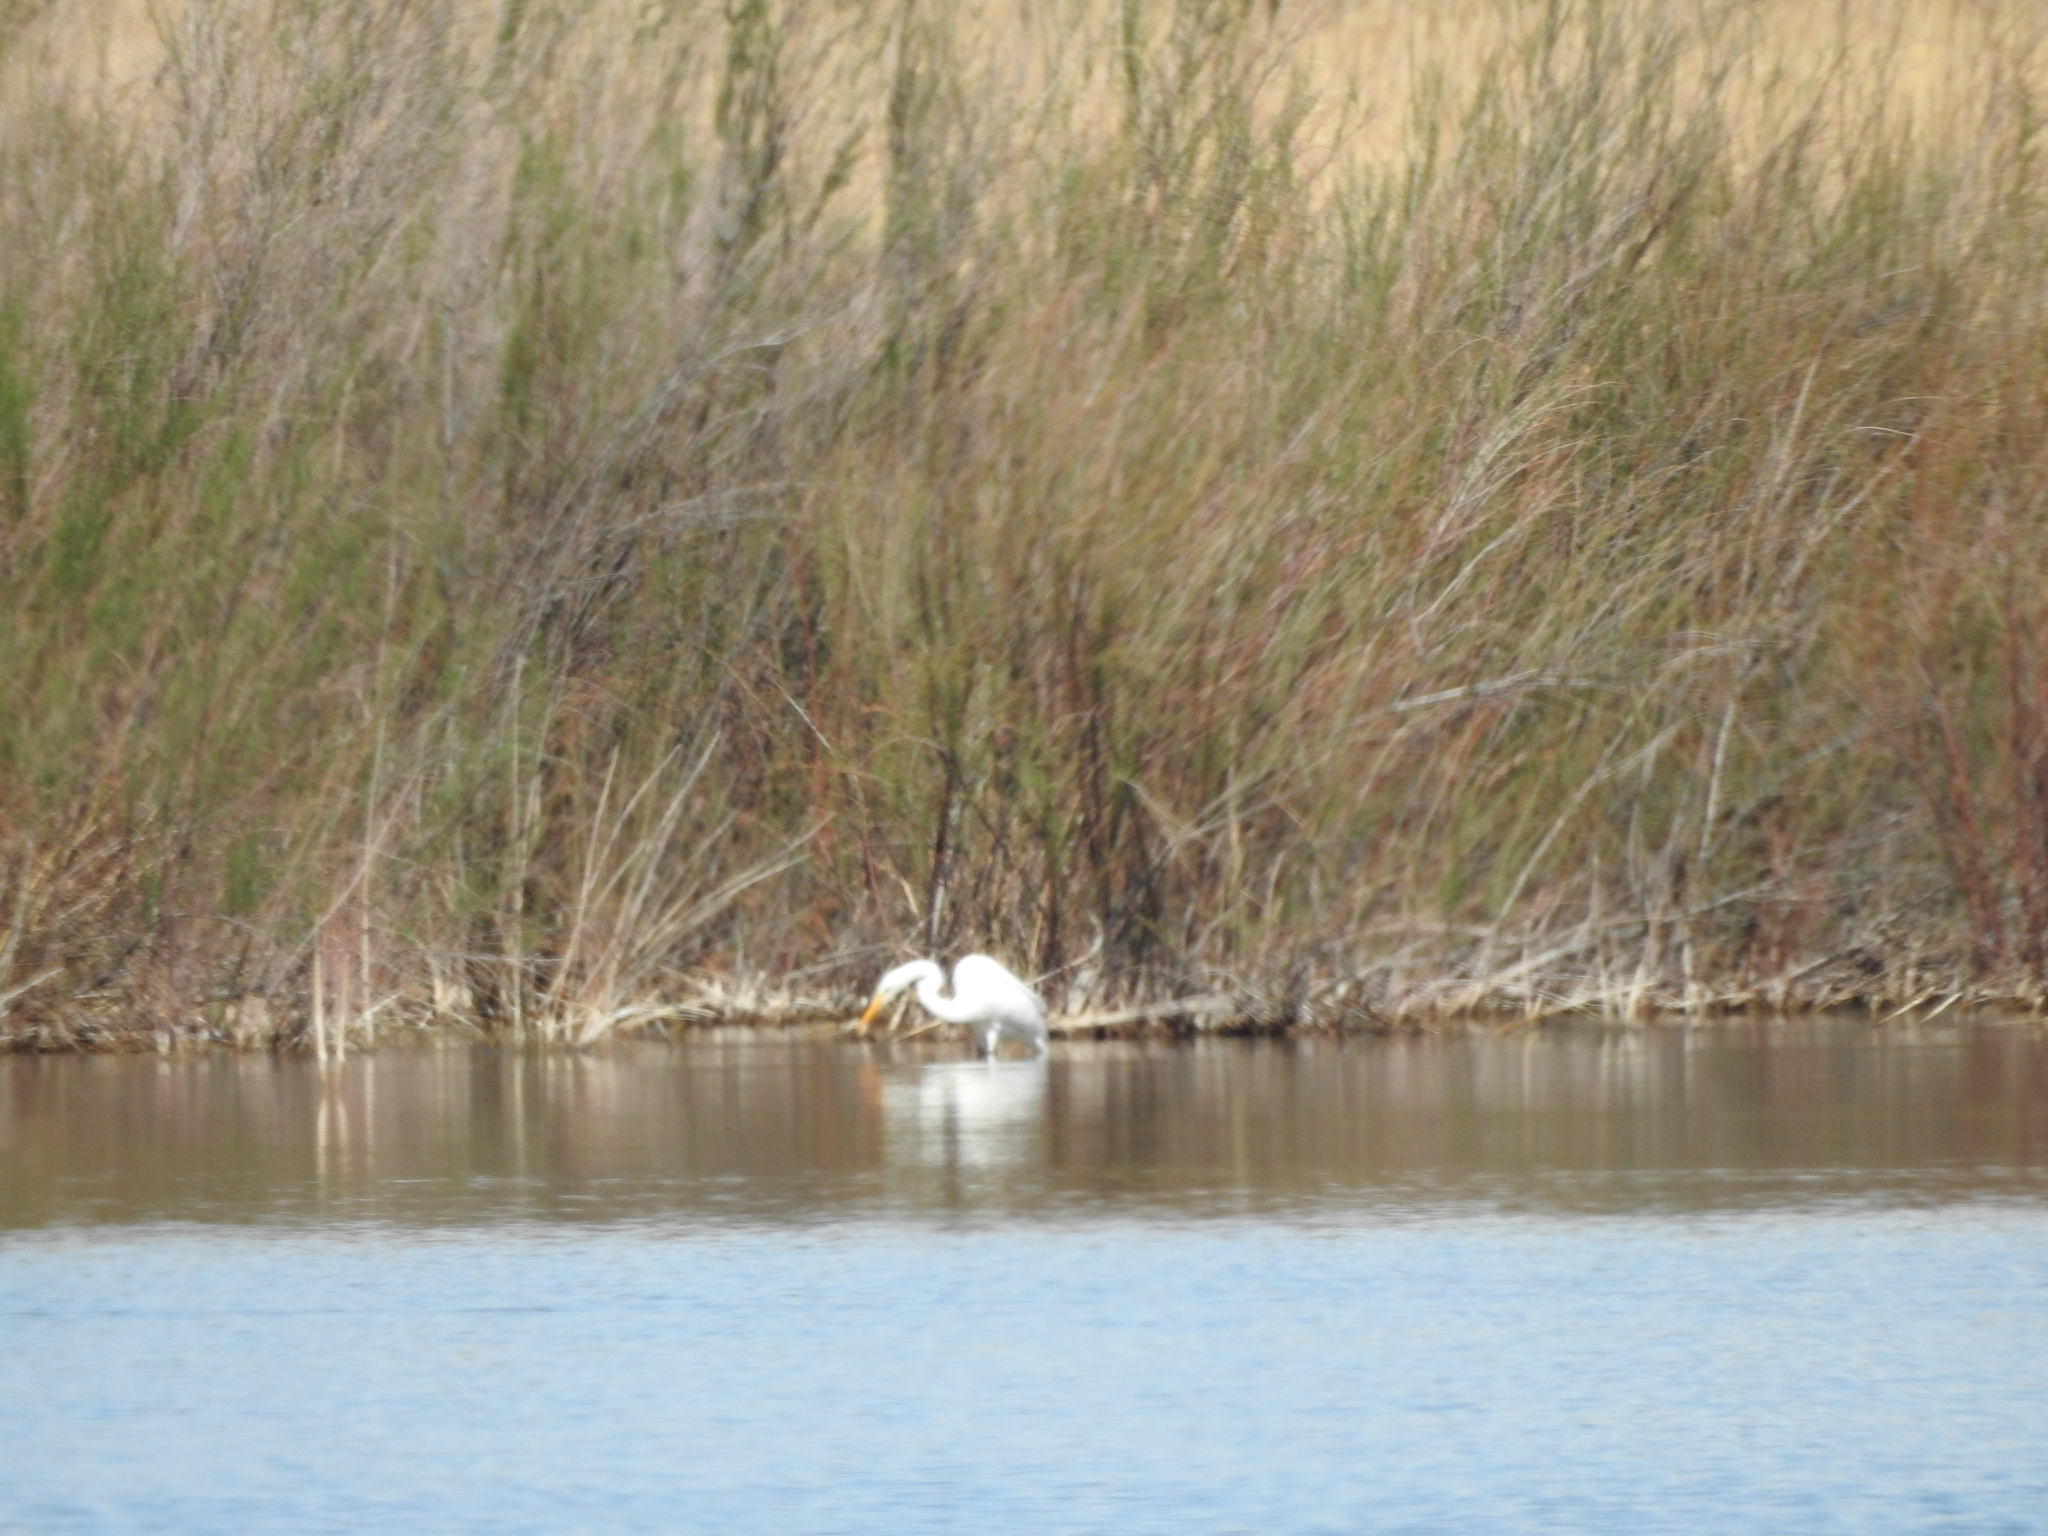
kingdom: Animalia
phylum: Chordata
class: Aves
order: Pelecaniformes
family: Ardeidae
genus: Ardea
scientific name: Ardea alba
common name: Great egret
